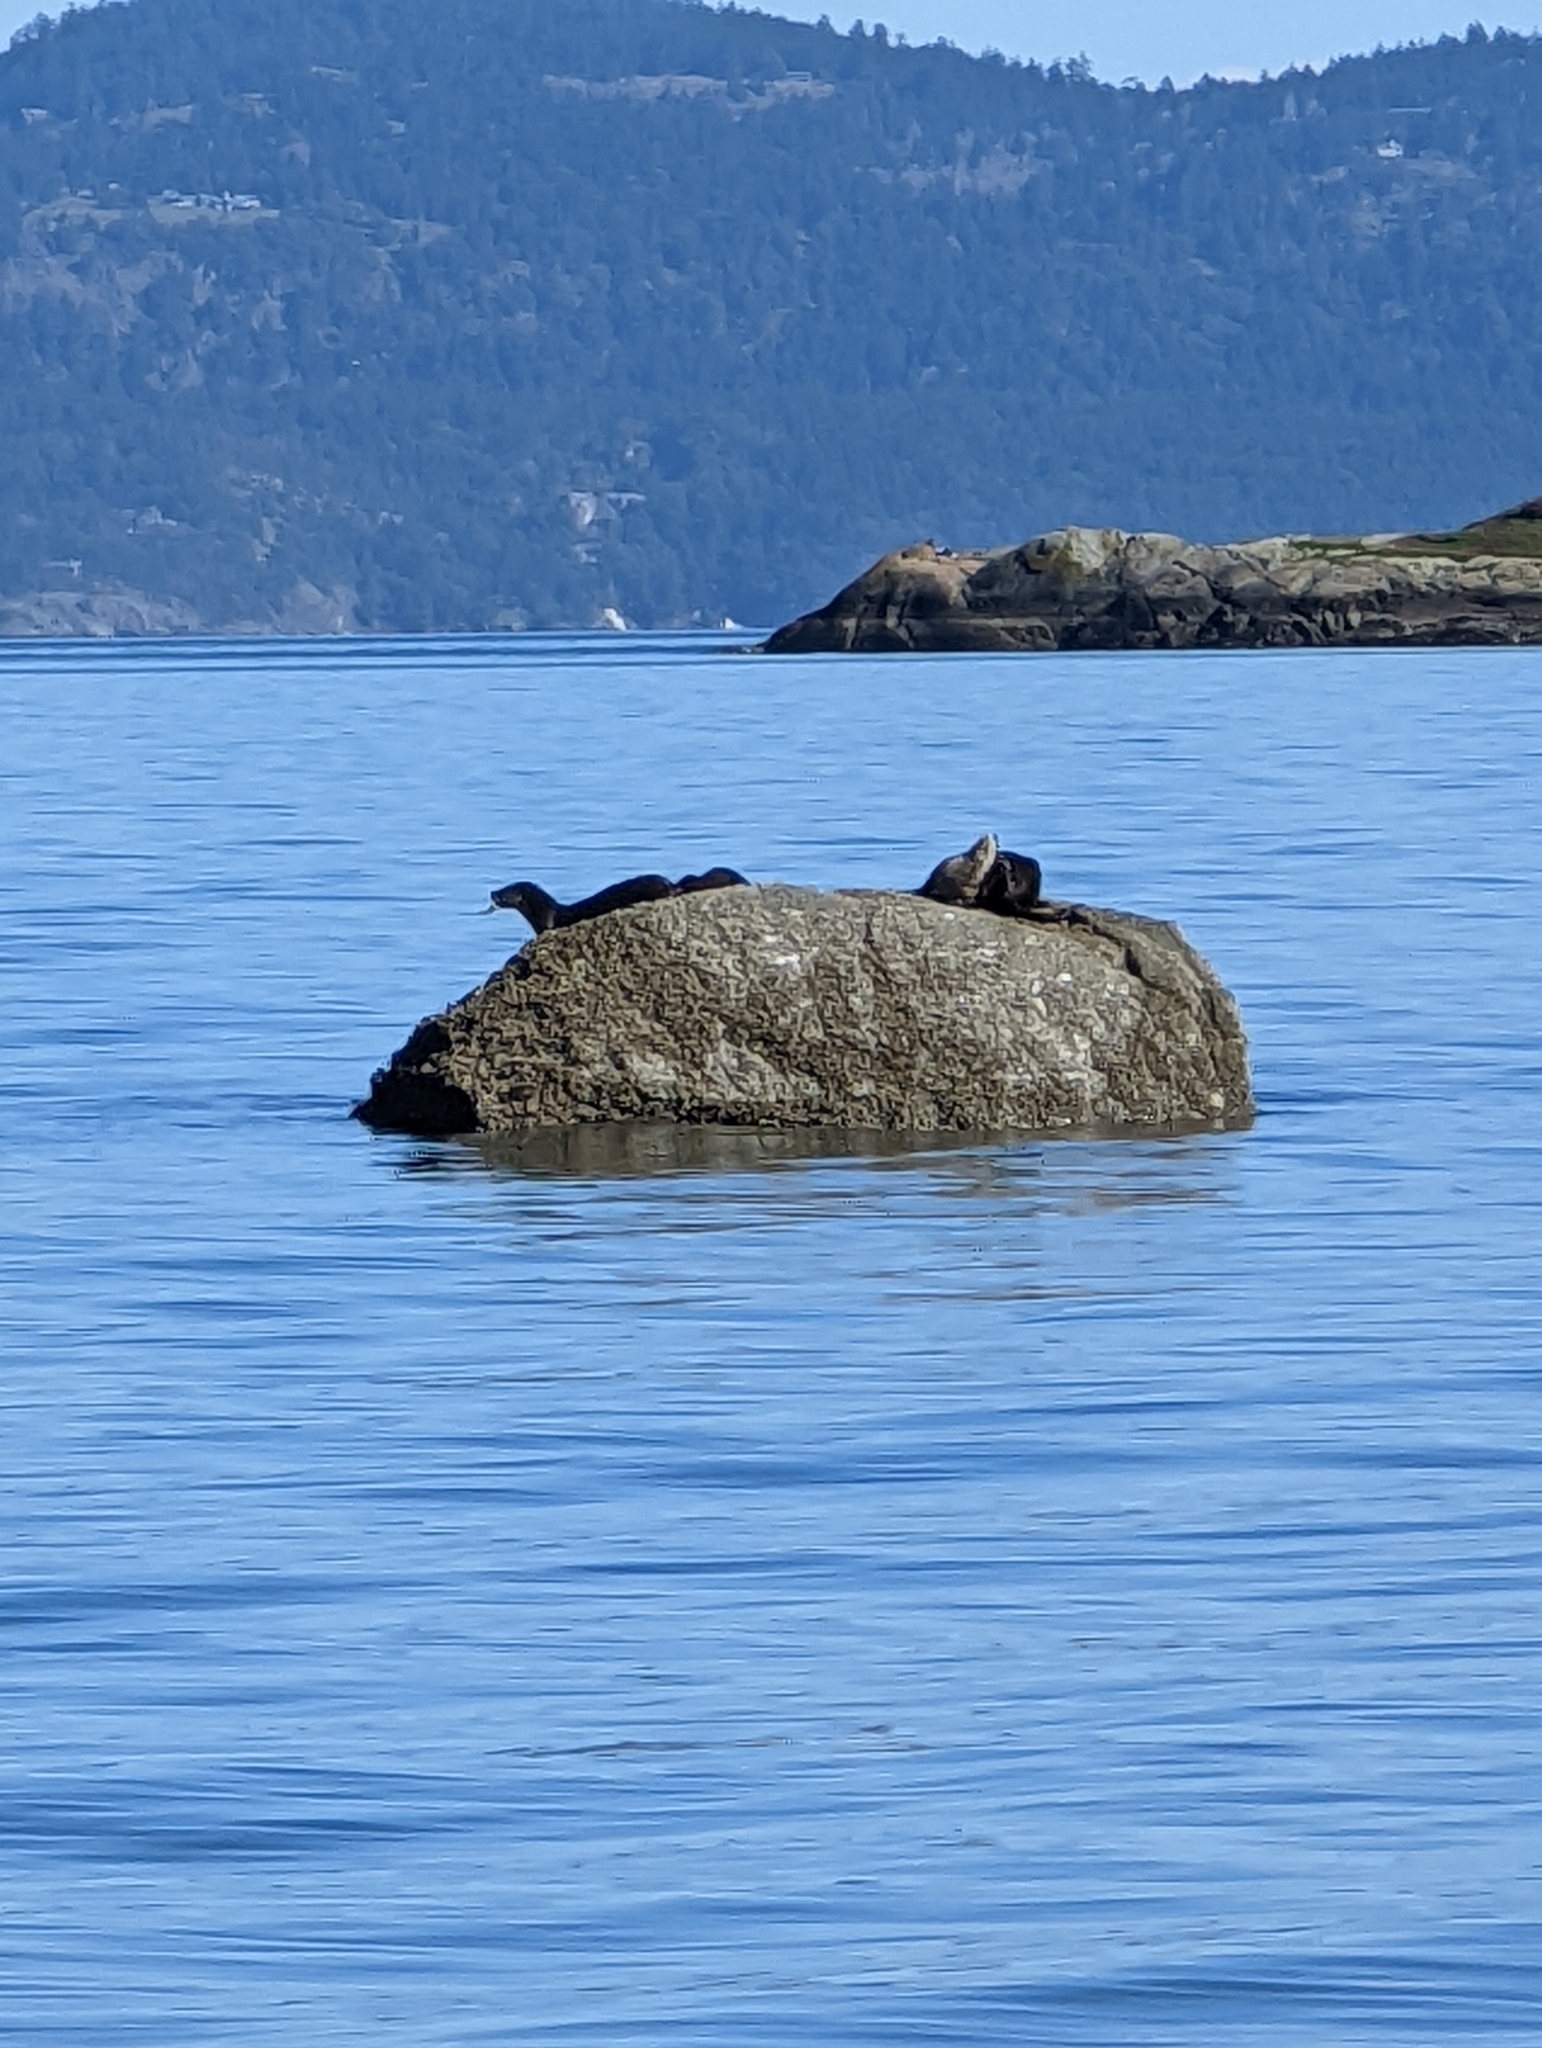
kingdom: Animalia
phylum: Chordata
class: Mammalia
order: Carnivora
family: Mustelidae
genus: Lontra
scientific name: Lontra canadensis
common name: North american river otter
